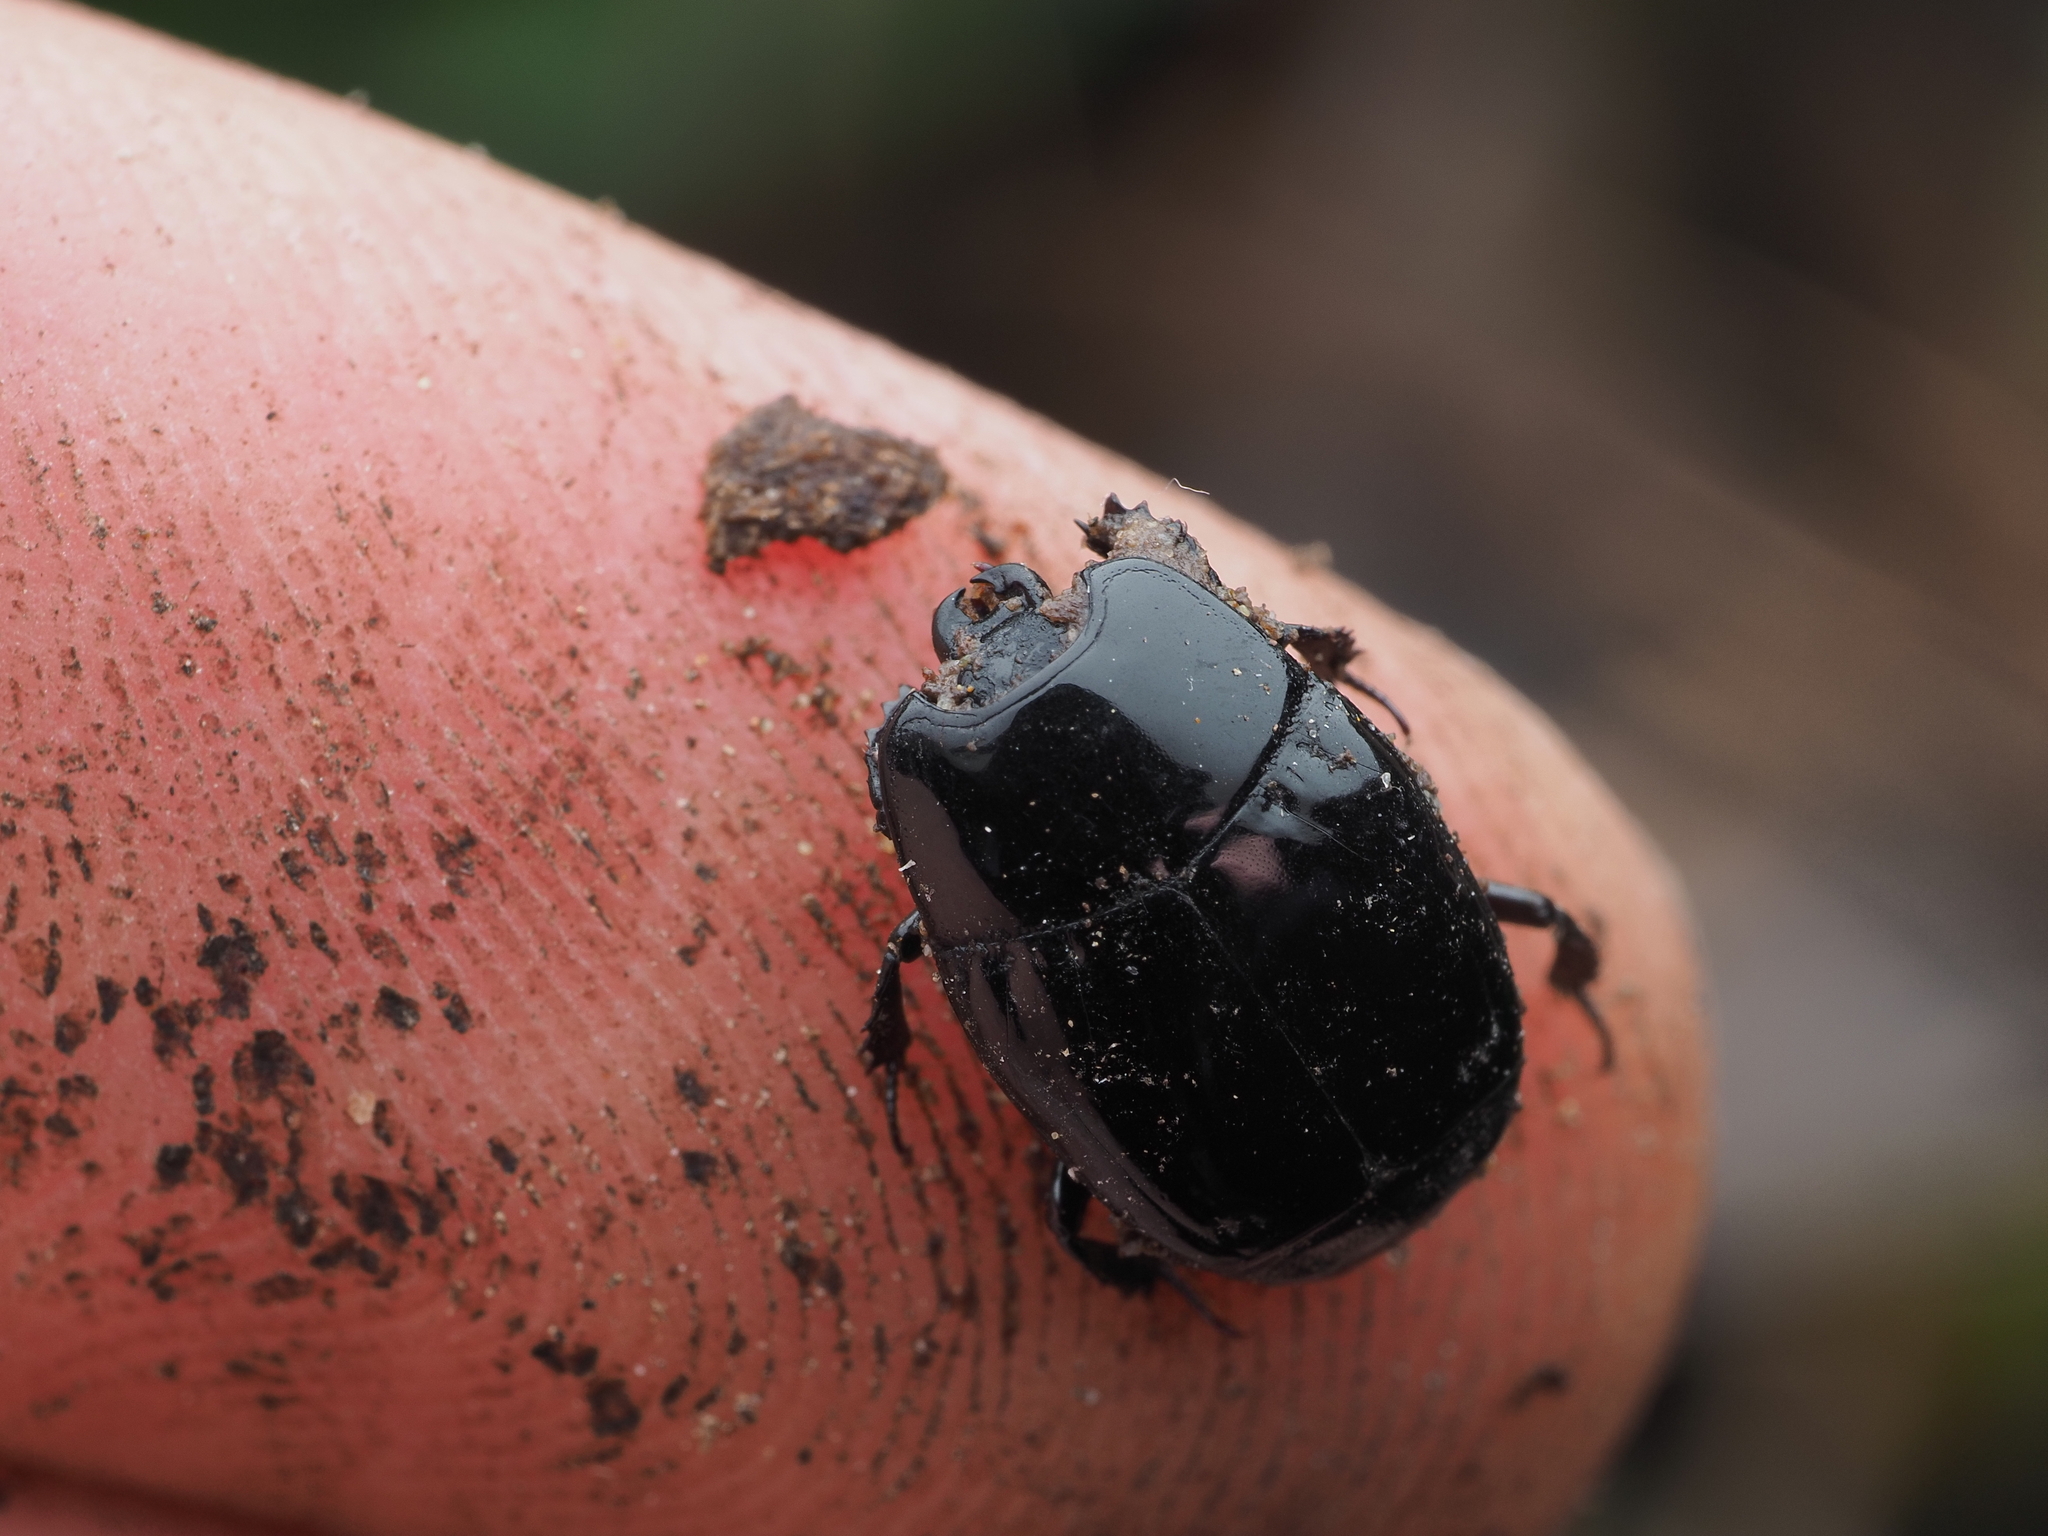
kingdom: Animalia
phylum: Arthropoda
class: Insecta
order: Coleoptera
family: Histeridae
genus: Aulacosternus
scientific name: Aulacosternus zelandicus
